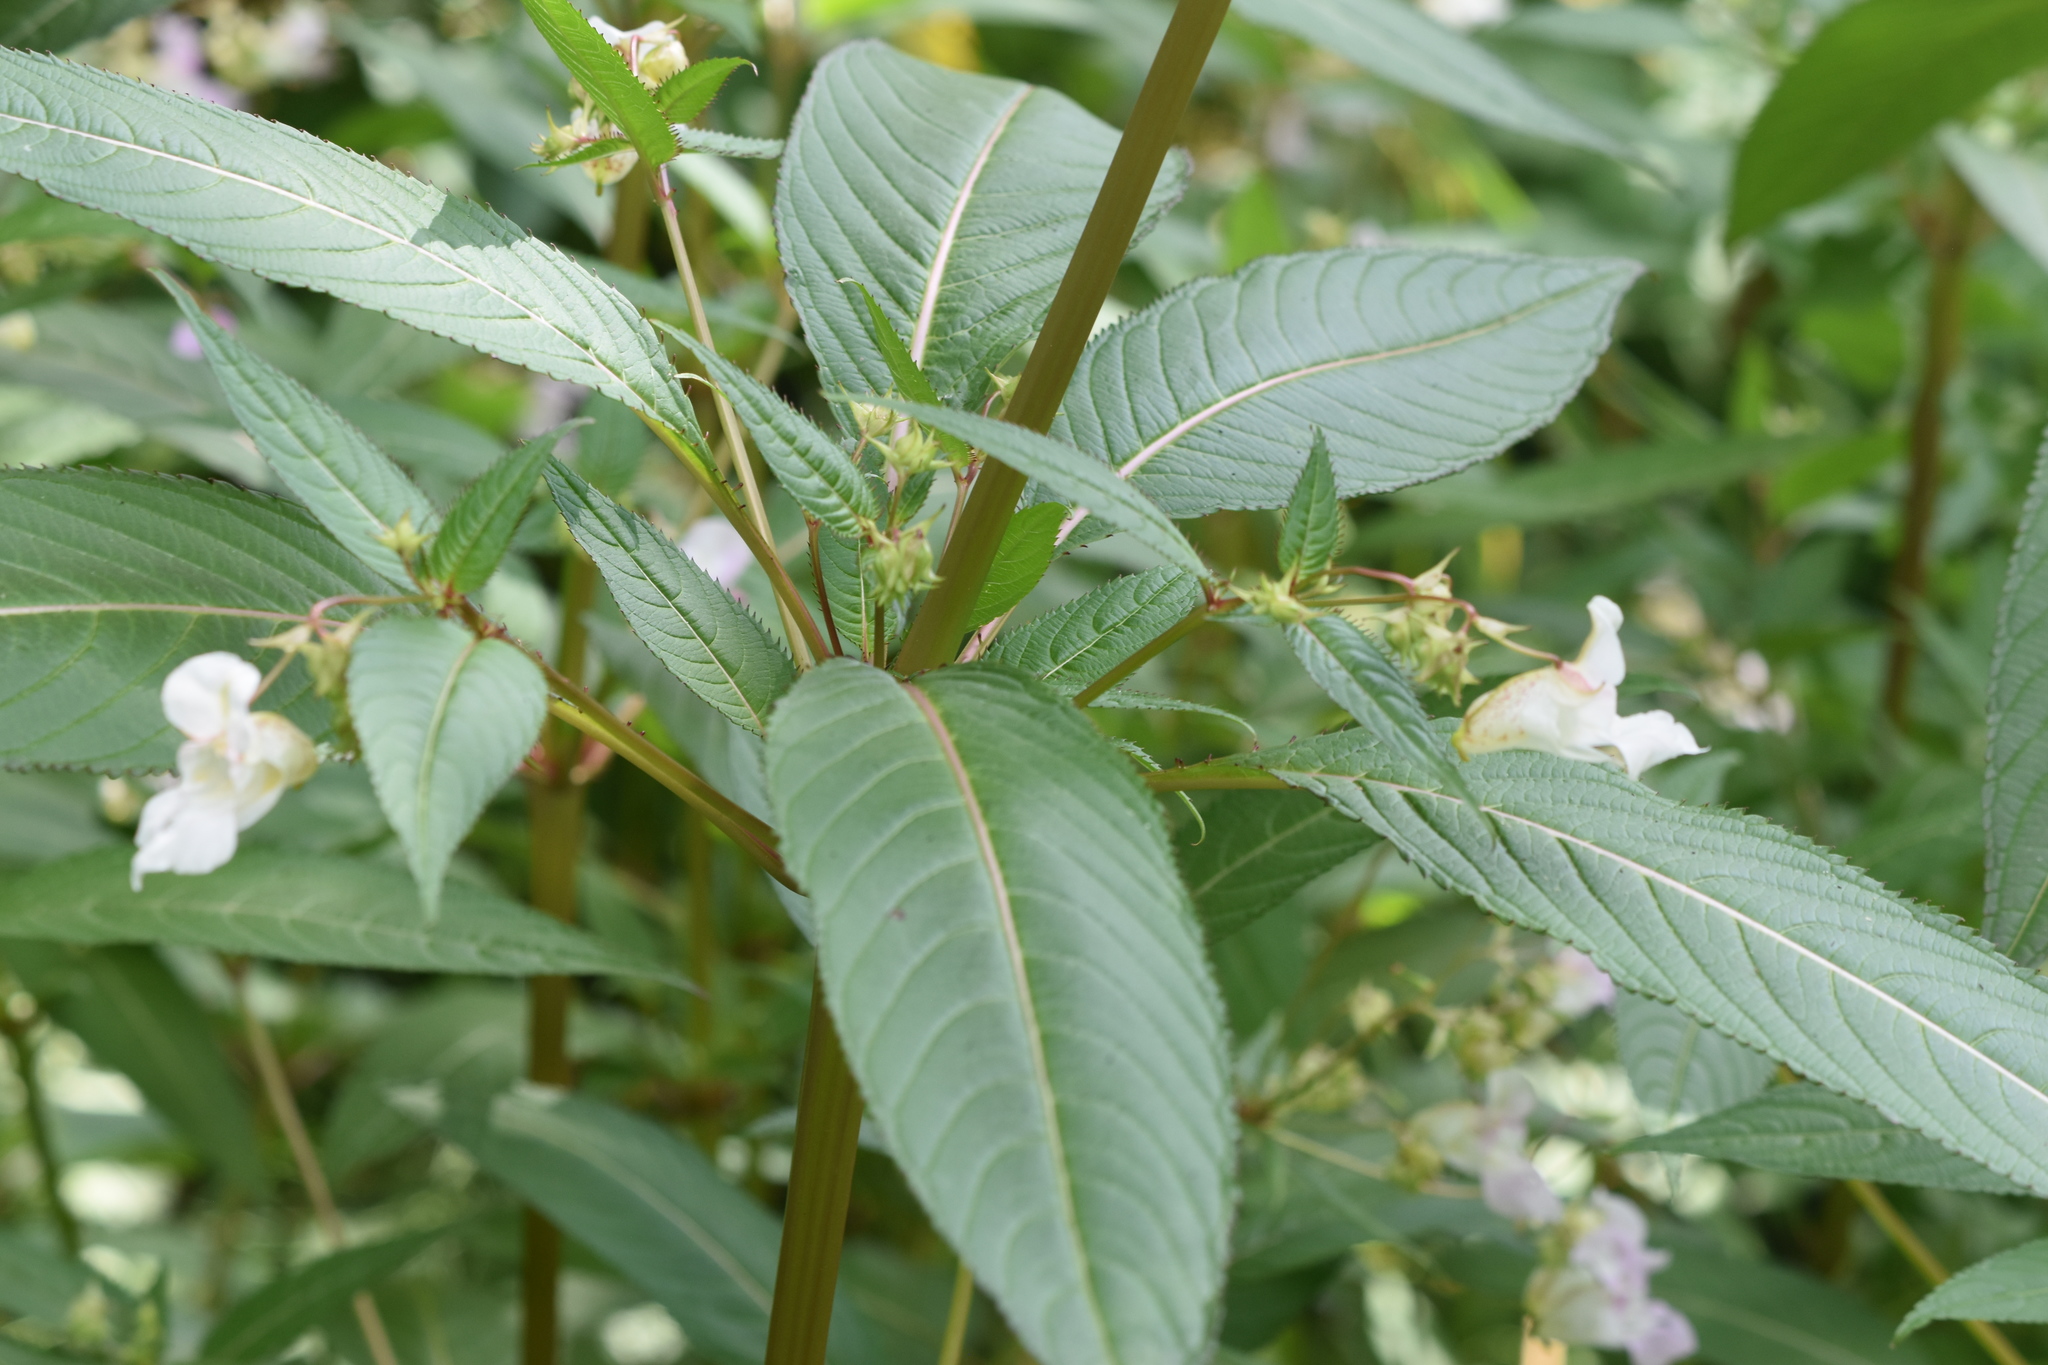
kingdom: Plantae
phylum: Tracheophyta
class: Magnoliopsida
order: Ericales
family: Balsaminaceae
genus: Impatiens
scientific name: Impatiens glandulifera
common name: Himalayan balsam
